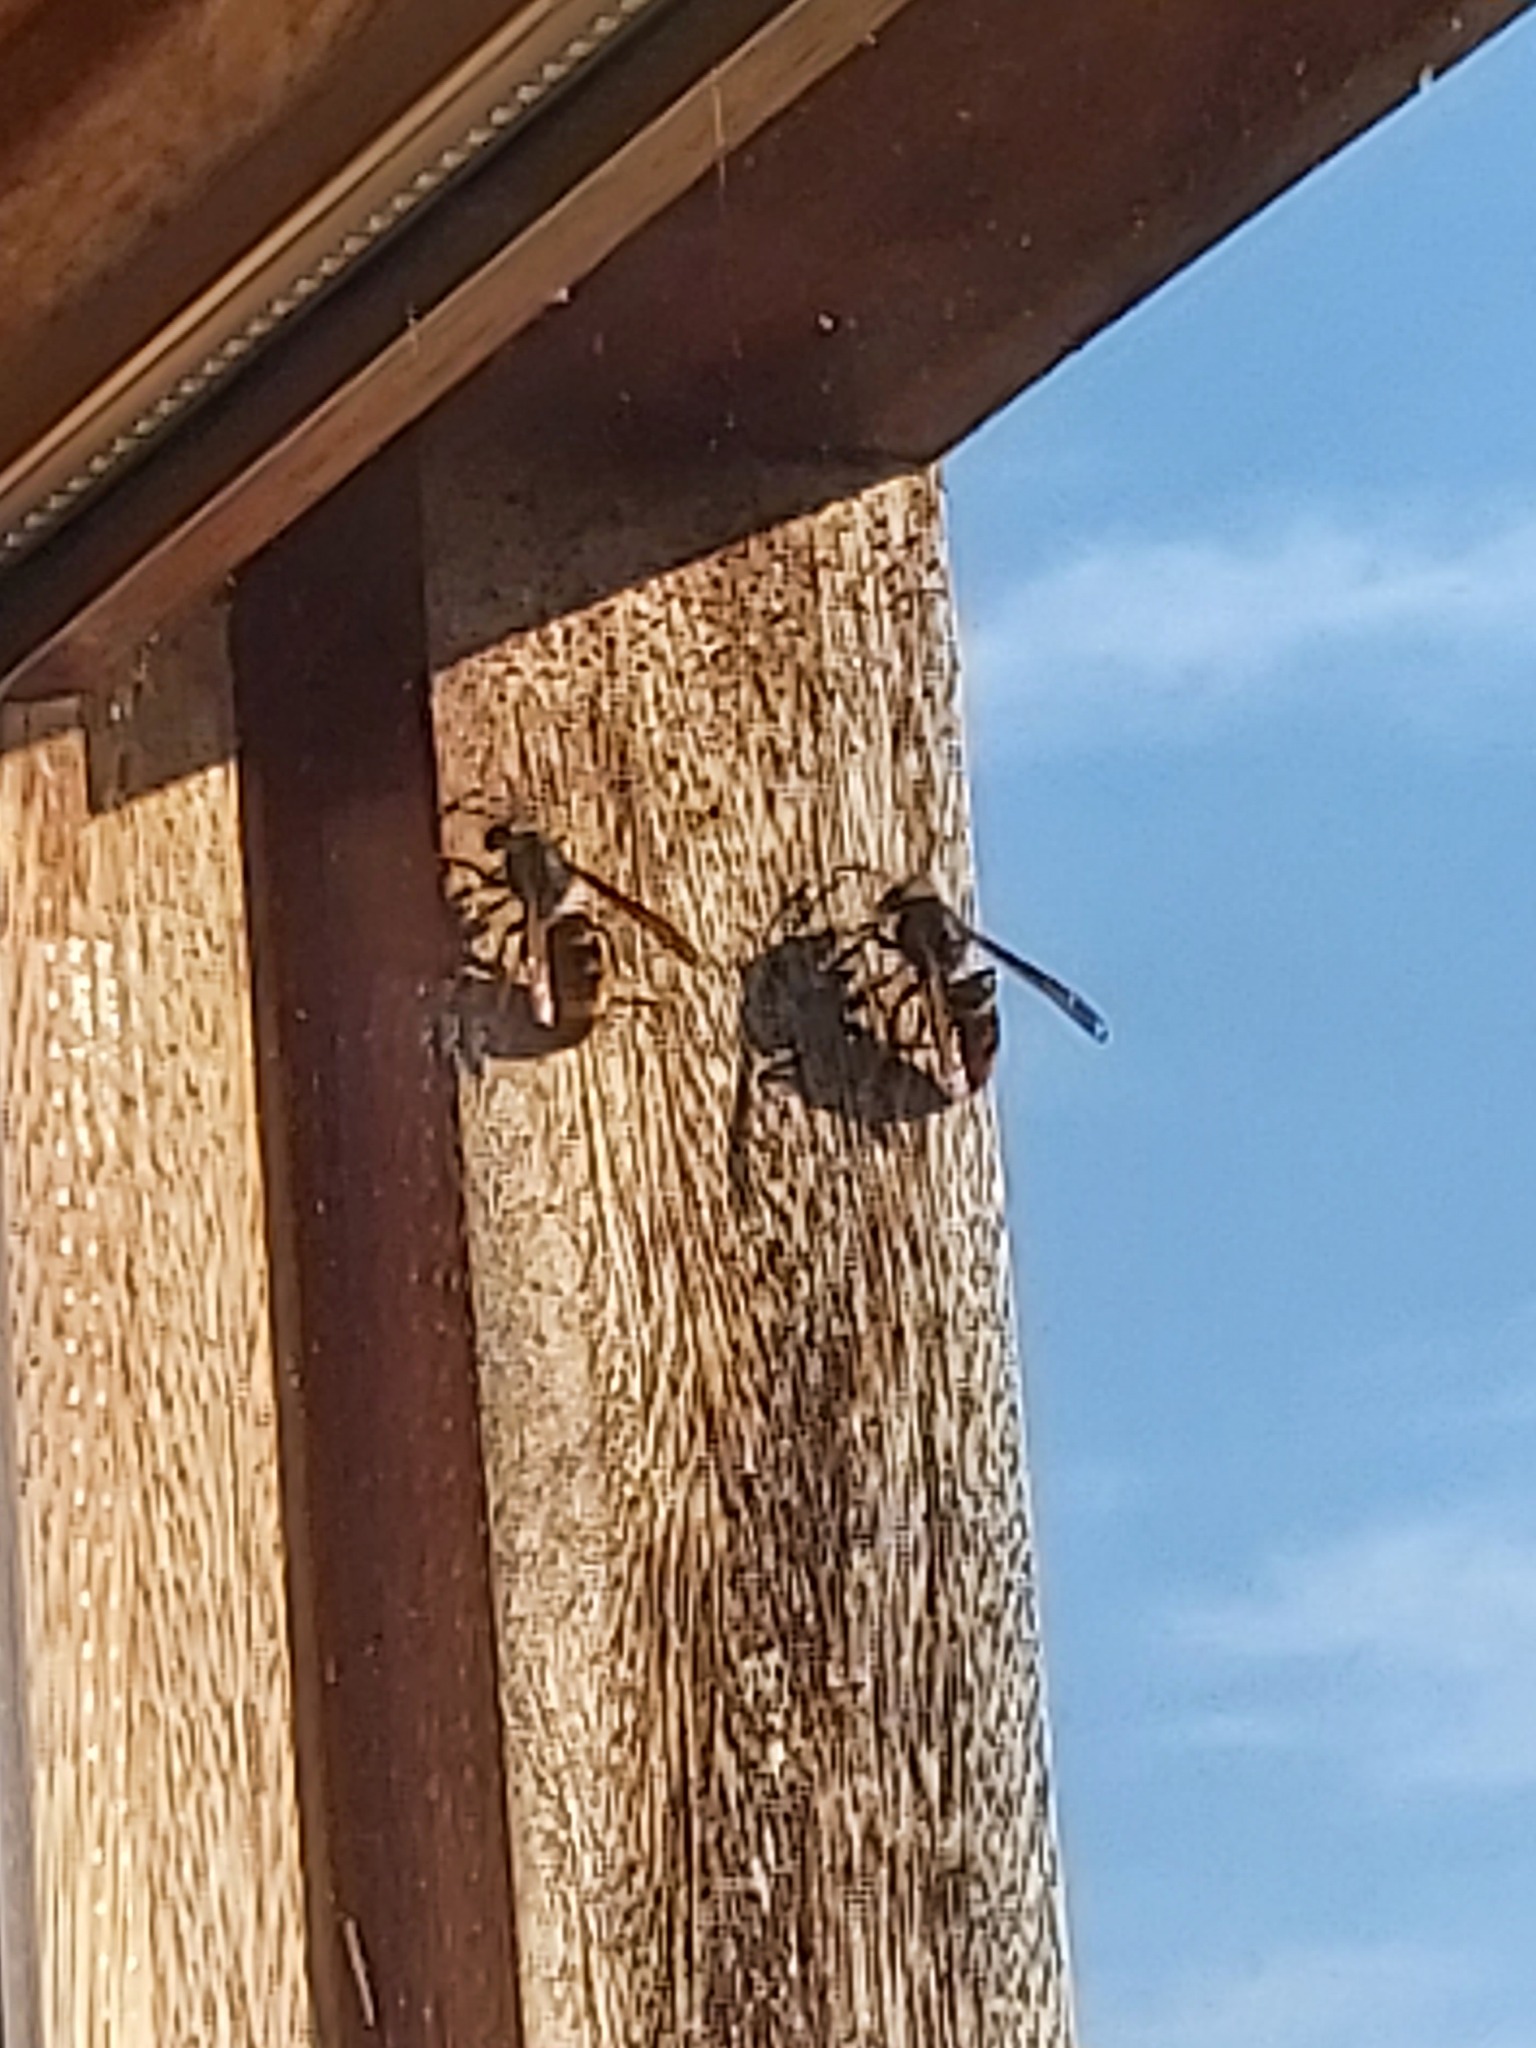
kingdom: Animalia
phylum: Arthropoda
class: Insecta
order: Hymenoptera
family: Vespidae
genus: Vespa
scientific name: Vespa velutina
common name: Asian hornet
